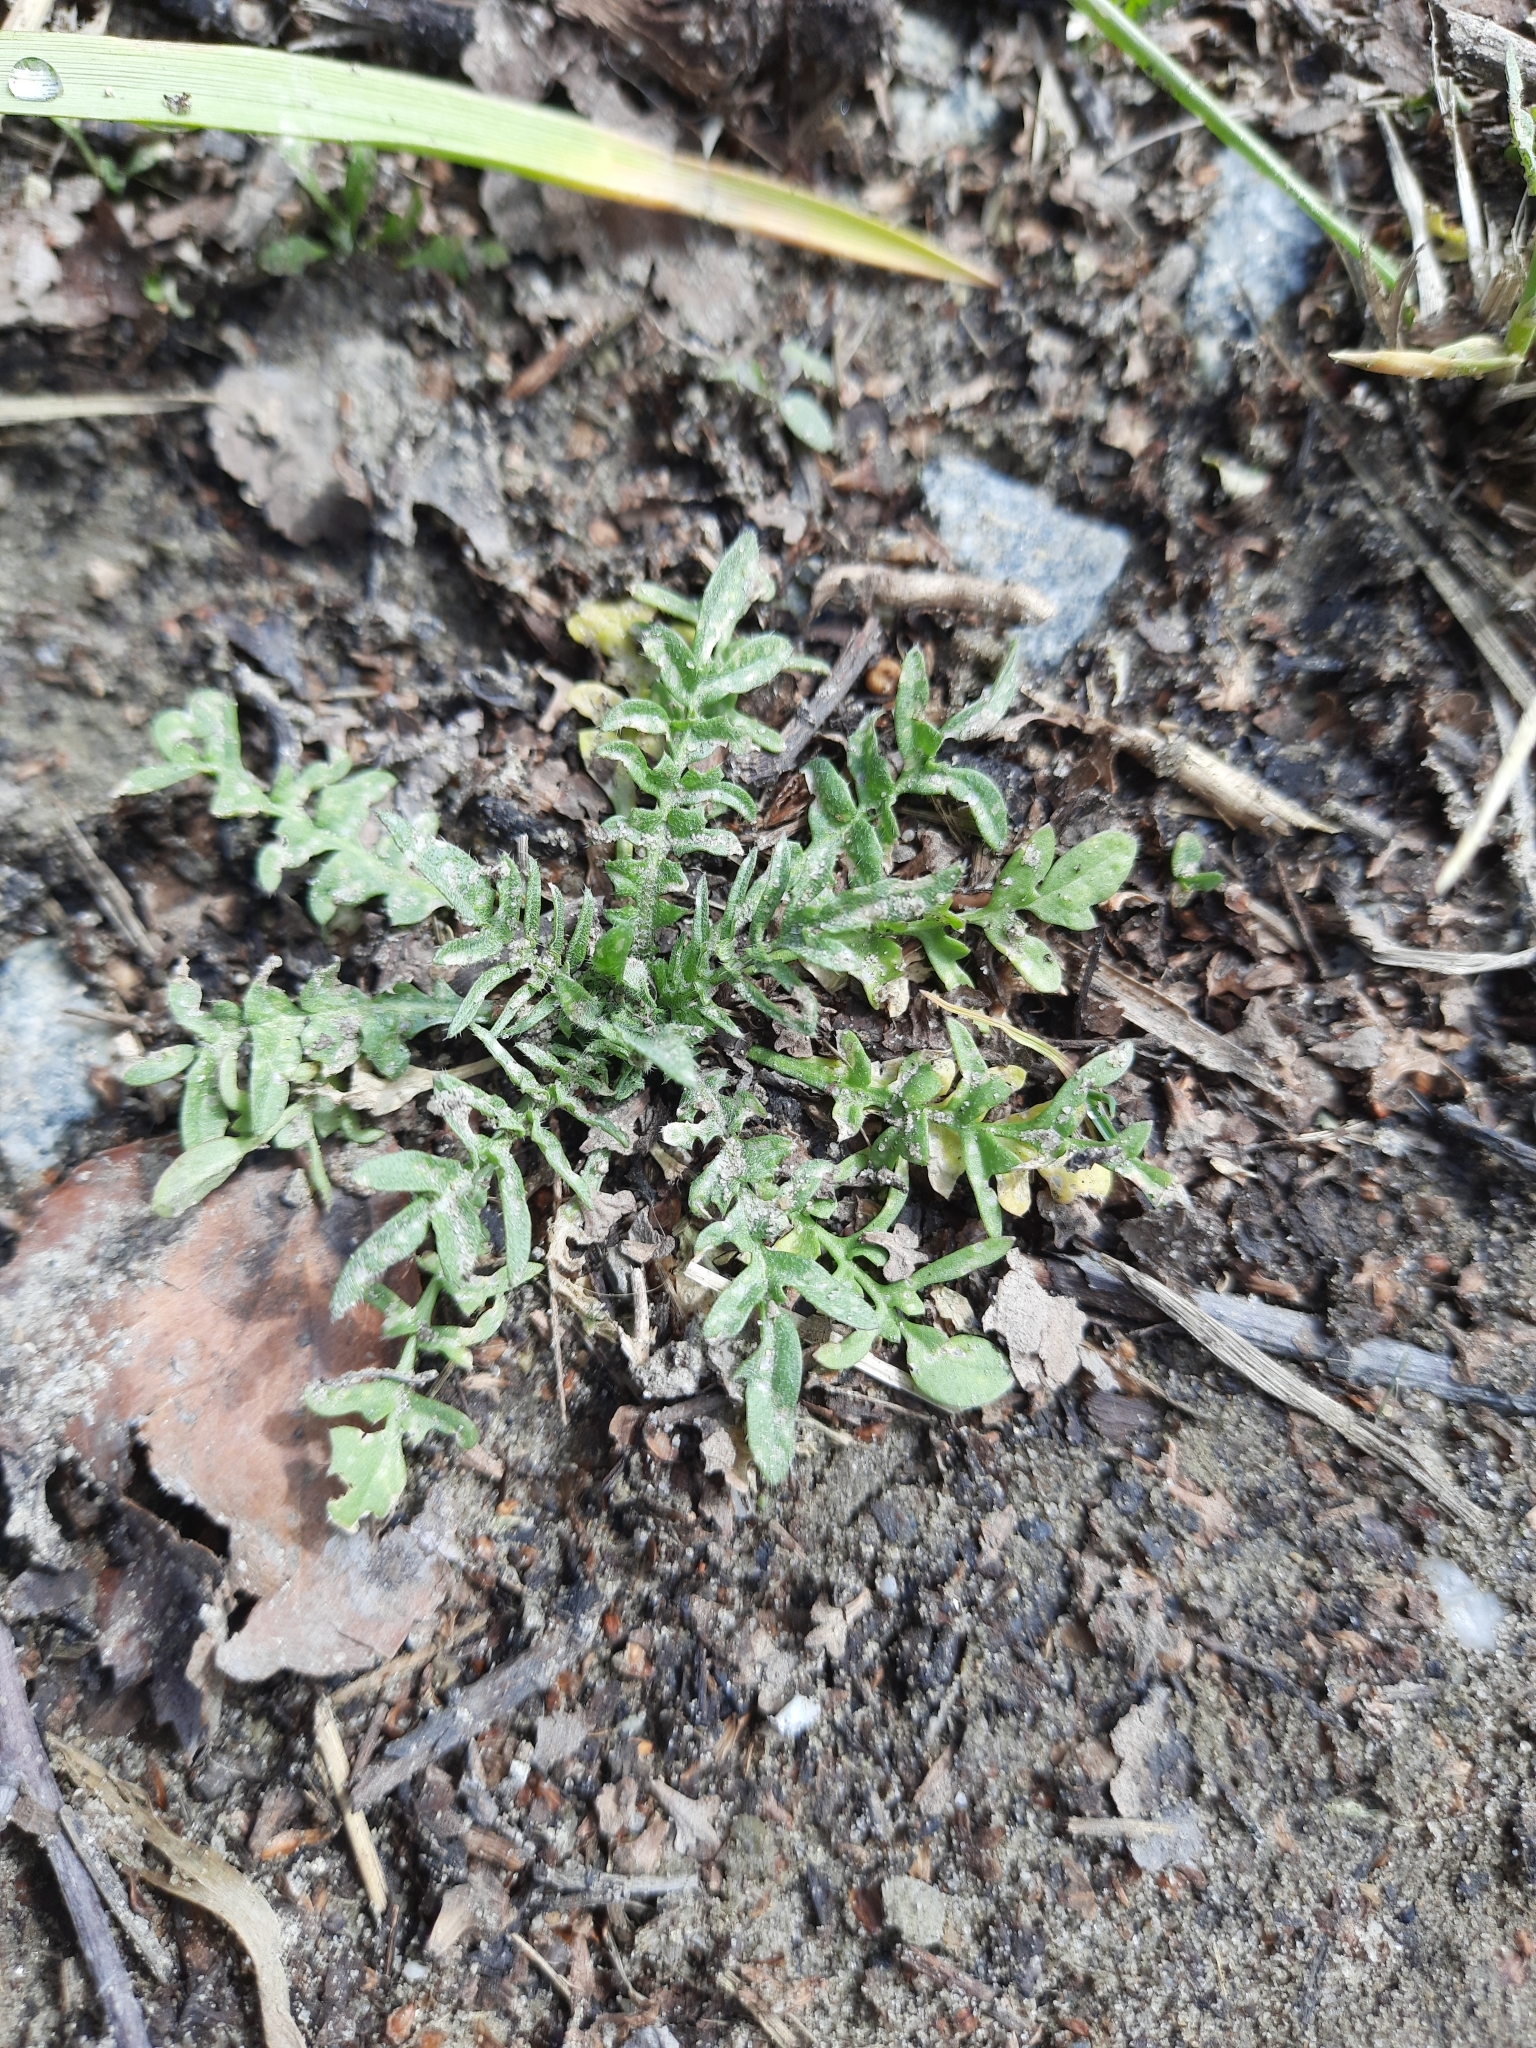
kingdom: Plantae
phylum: Tracheophyta
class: Magnoliopsida
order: Brassicales
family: Brassicaceae
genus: Capsella
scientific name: Capsella bursa-pastoris
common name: Shepherd's purse
